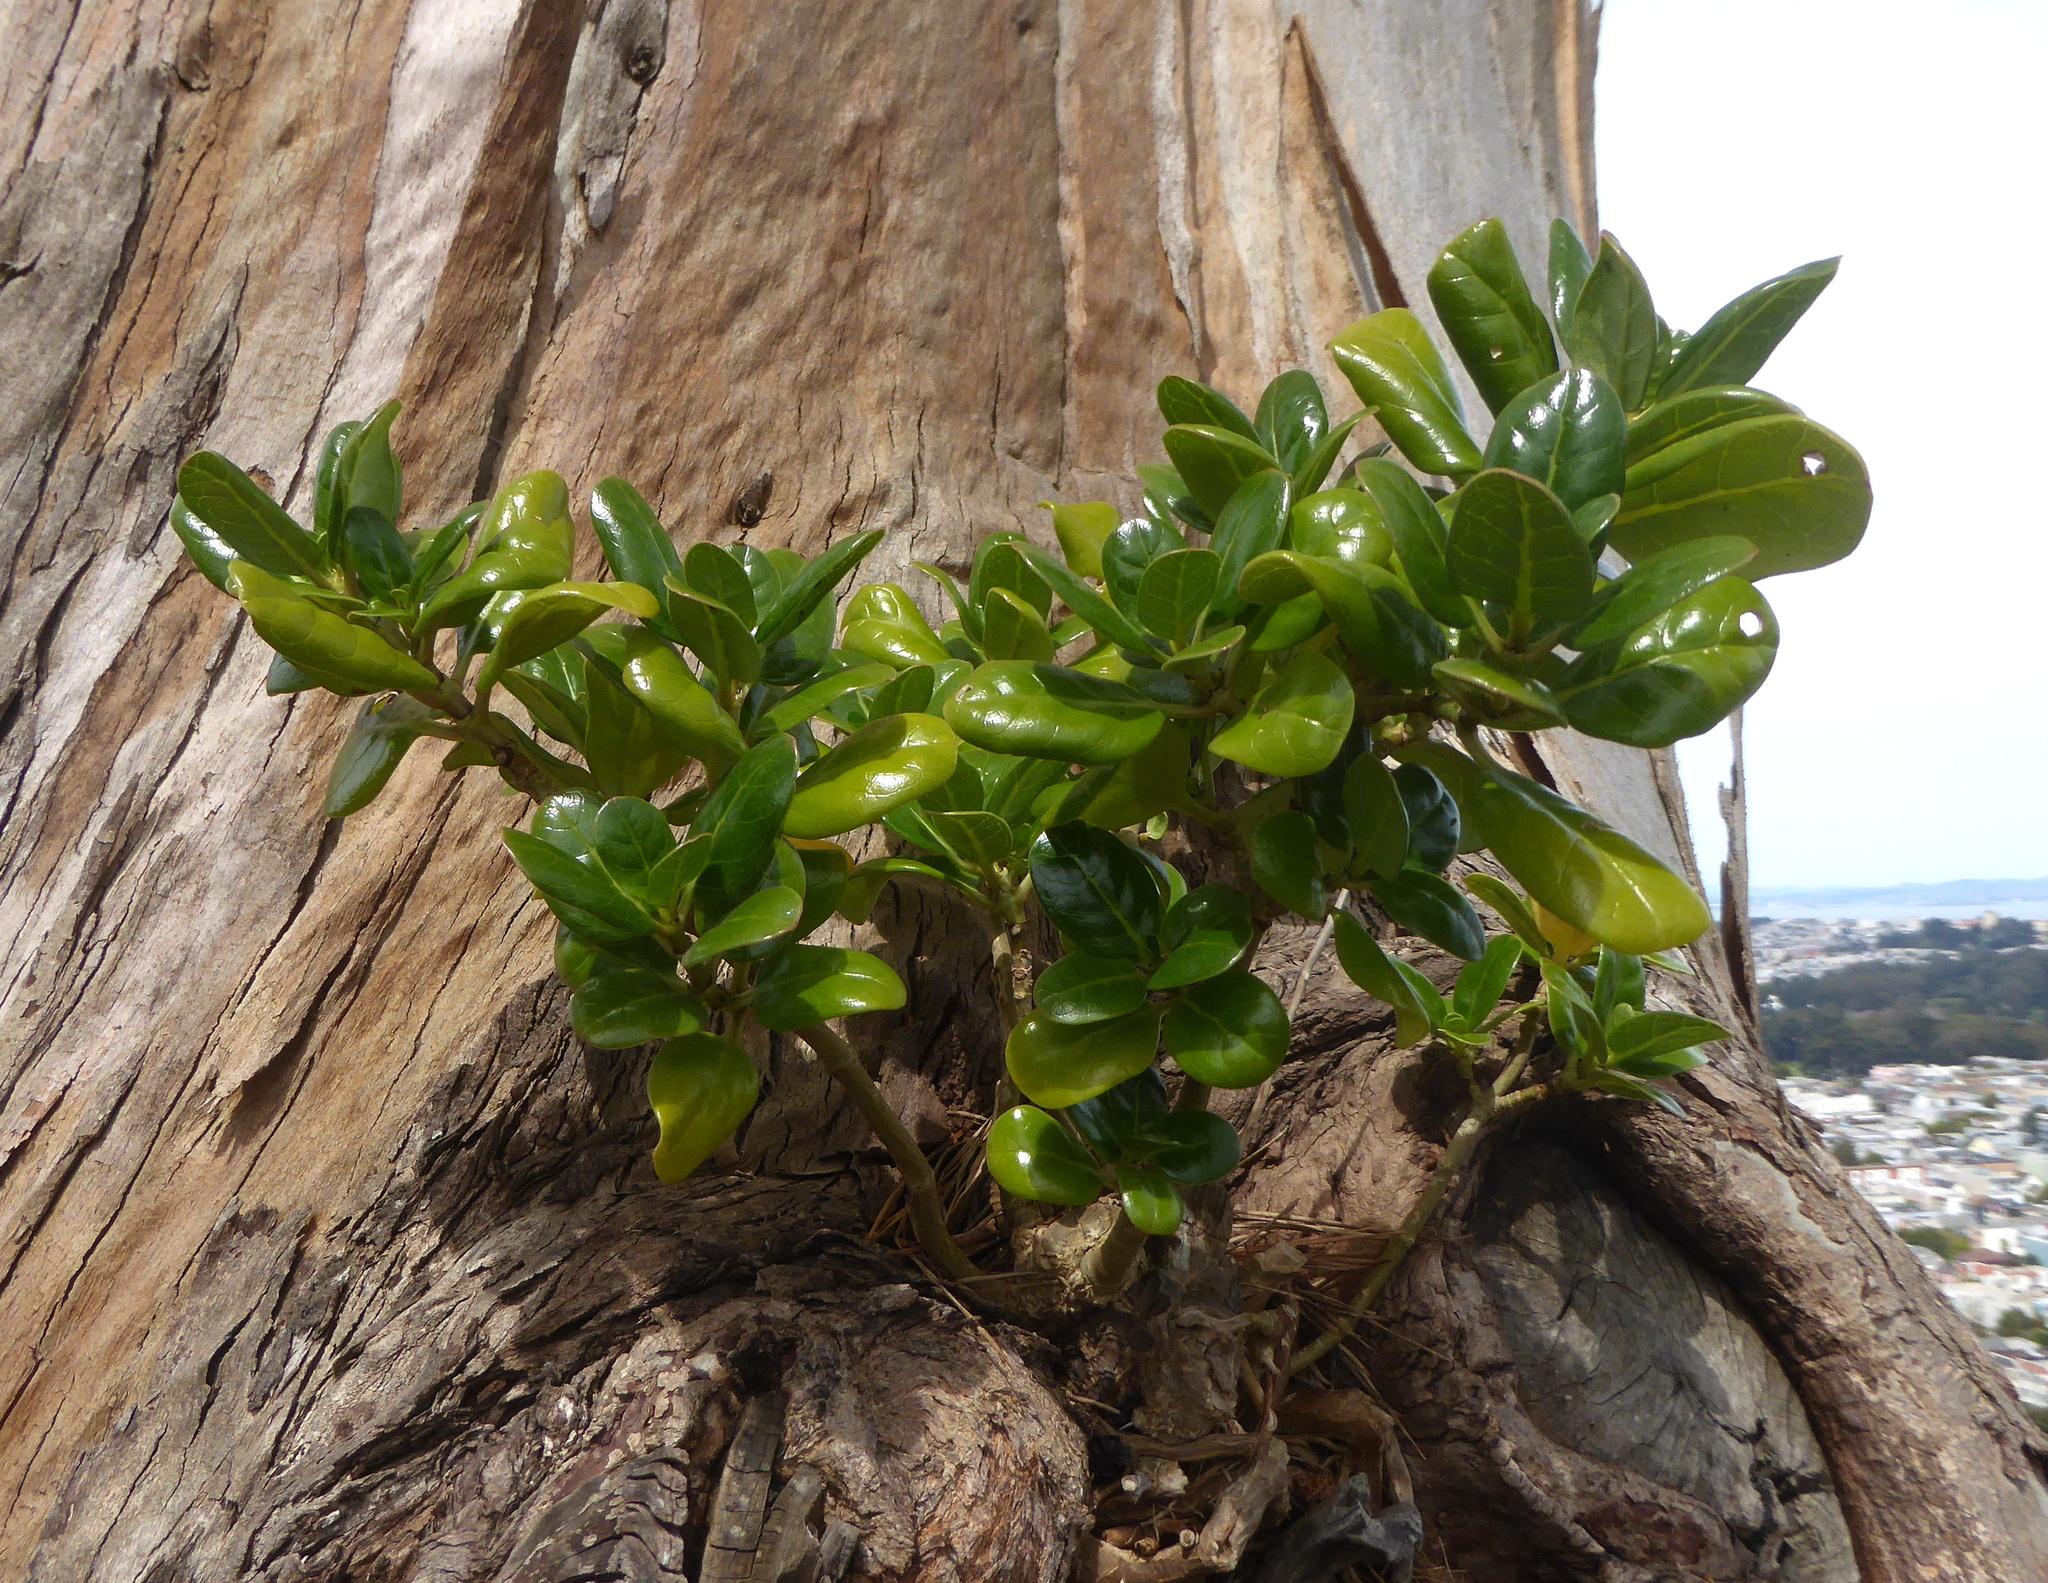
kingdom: Plantae
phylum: Tracheophyta
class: Magnoliopsida
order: Gentianales
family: Rubiaceae
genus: Coprosma
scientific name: Coprosma repens
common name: Tree bedstraw
